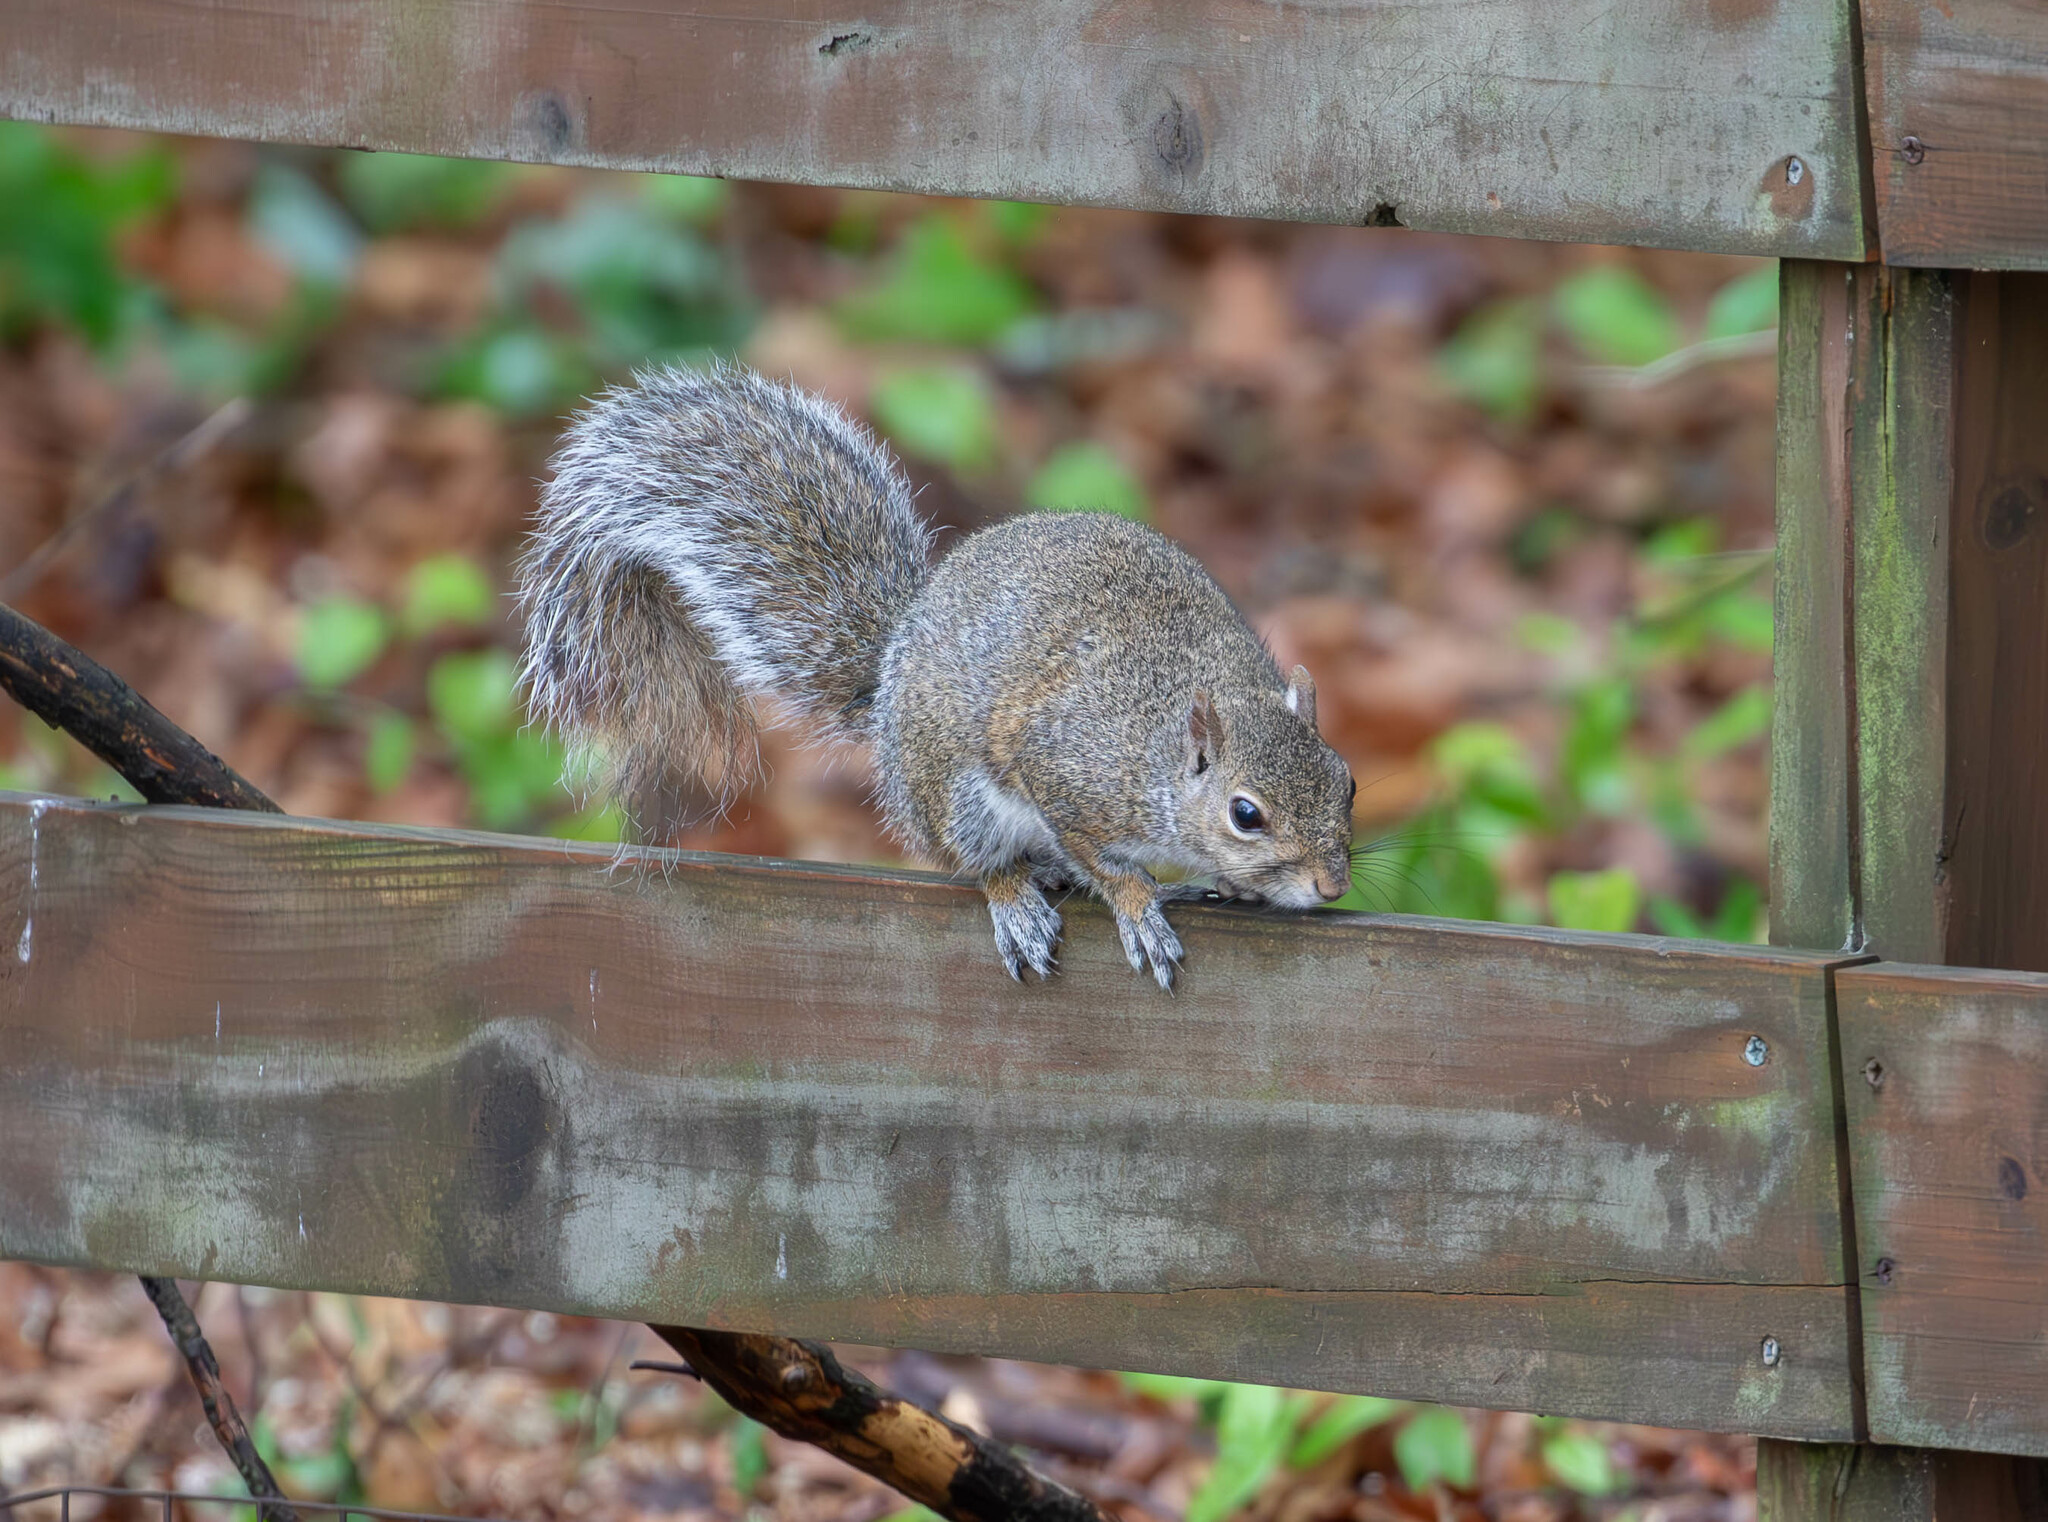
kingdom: Animalia
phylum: Chordata
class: Mammalia
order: Rodentia
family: Sciuridae
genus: Sciurus
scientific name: Sciurus carolinensis
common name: Eastern gray squirrel
